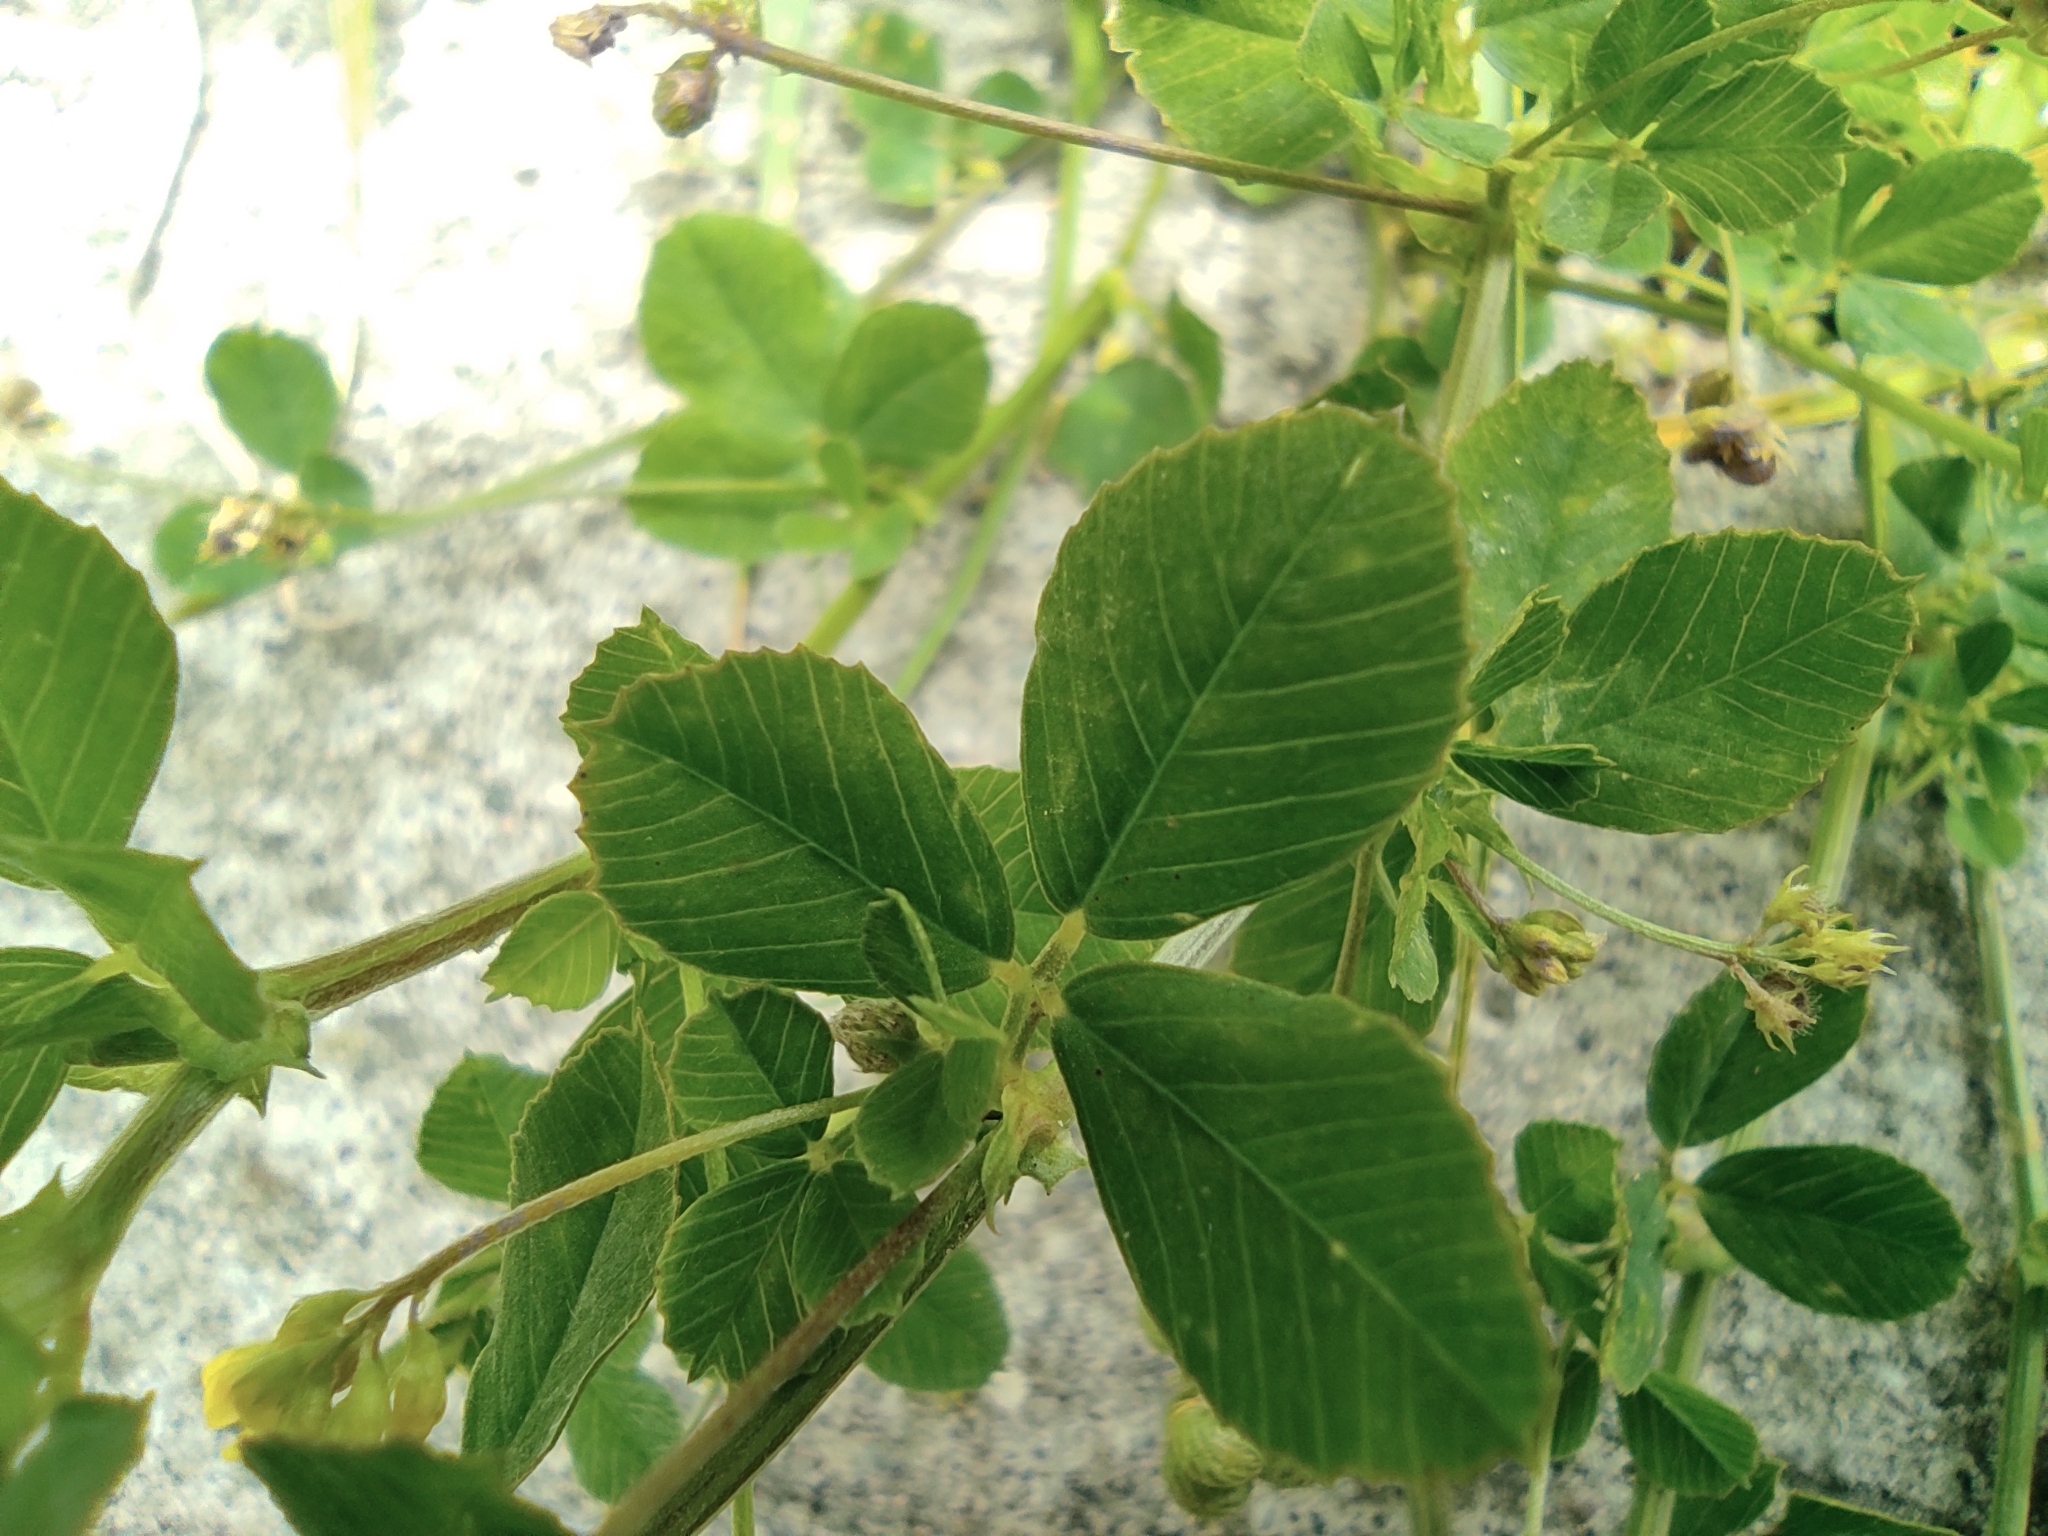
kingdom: Plantae
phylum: Tracheophyta
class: Magnoliopsida
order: Fabales
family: Fabaceae
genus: Medicago
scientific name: Medicago lupulina
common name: Black medick
